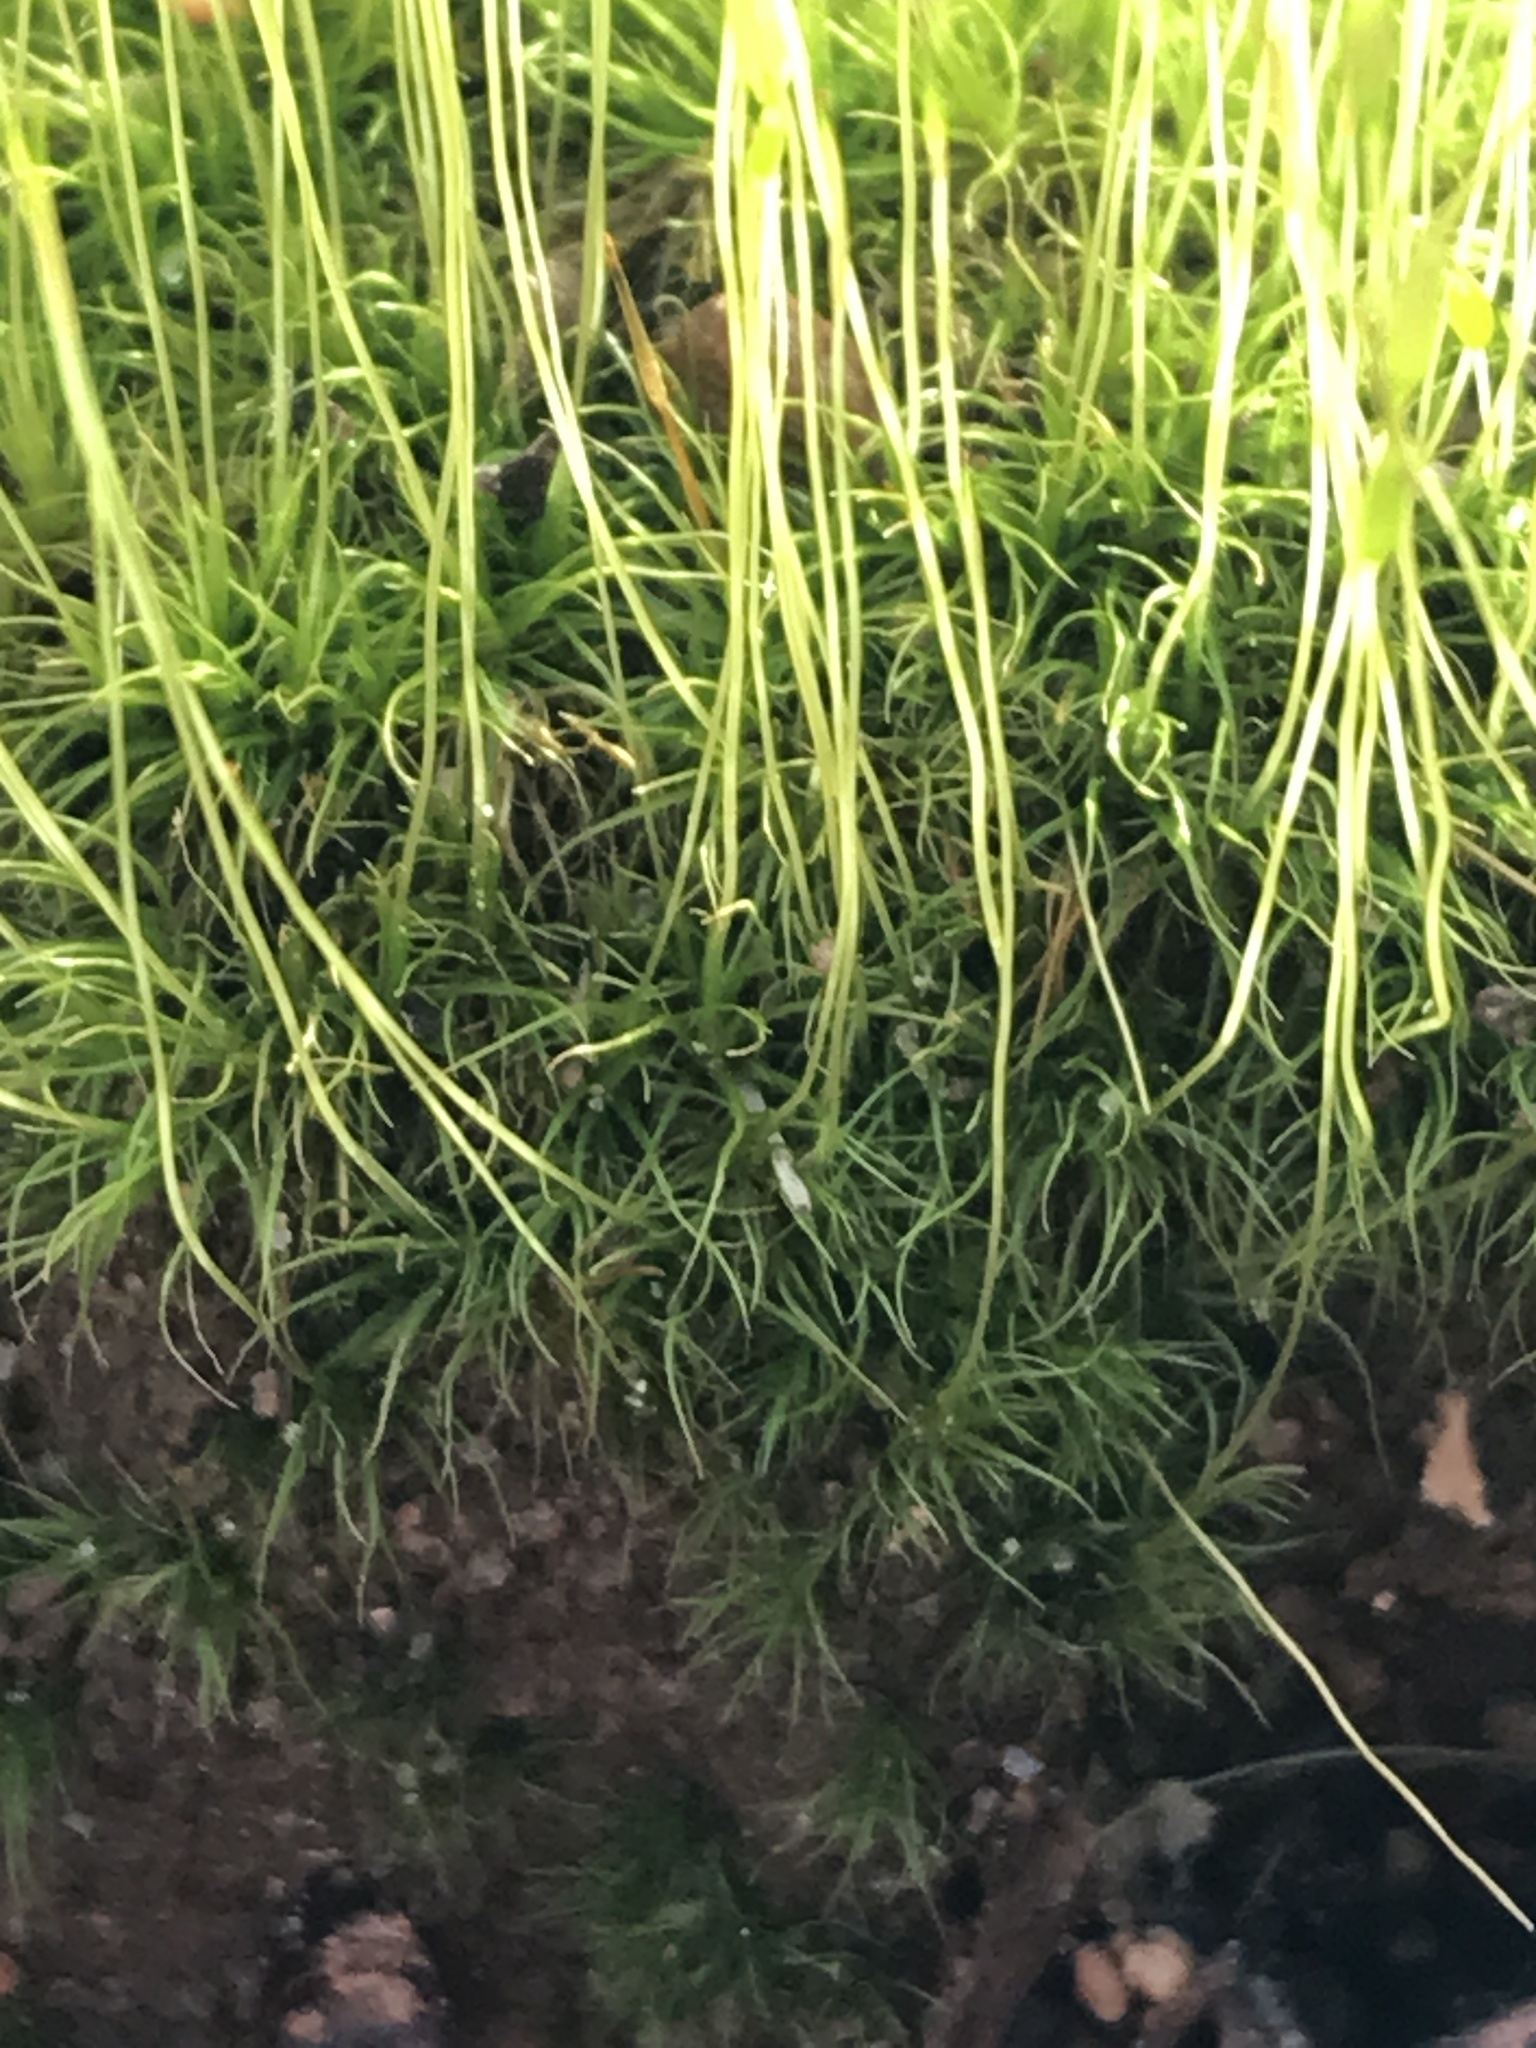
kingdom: Plantae
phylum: Bryophyta
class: Bryopsida
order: Dicranales
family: Ditrichaceae
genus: Ditrichum
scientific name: Ditrichum pallidum
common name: Pale cow-hair moss
